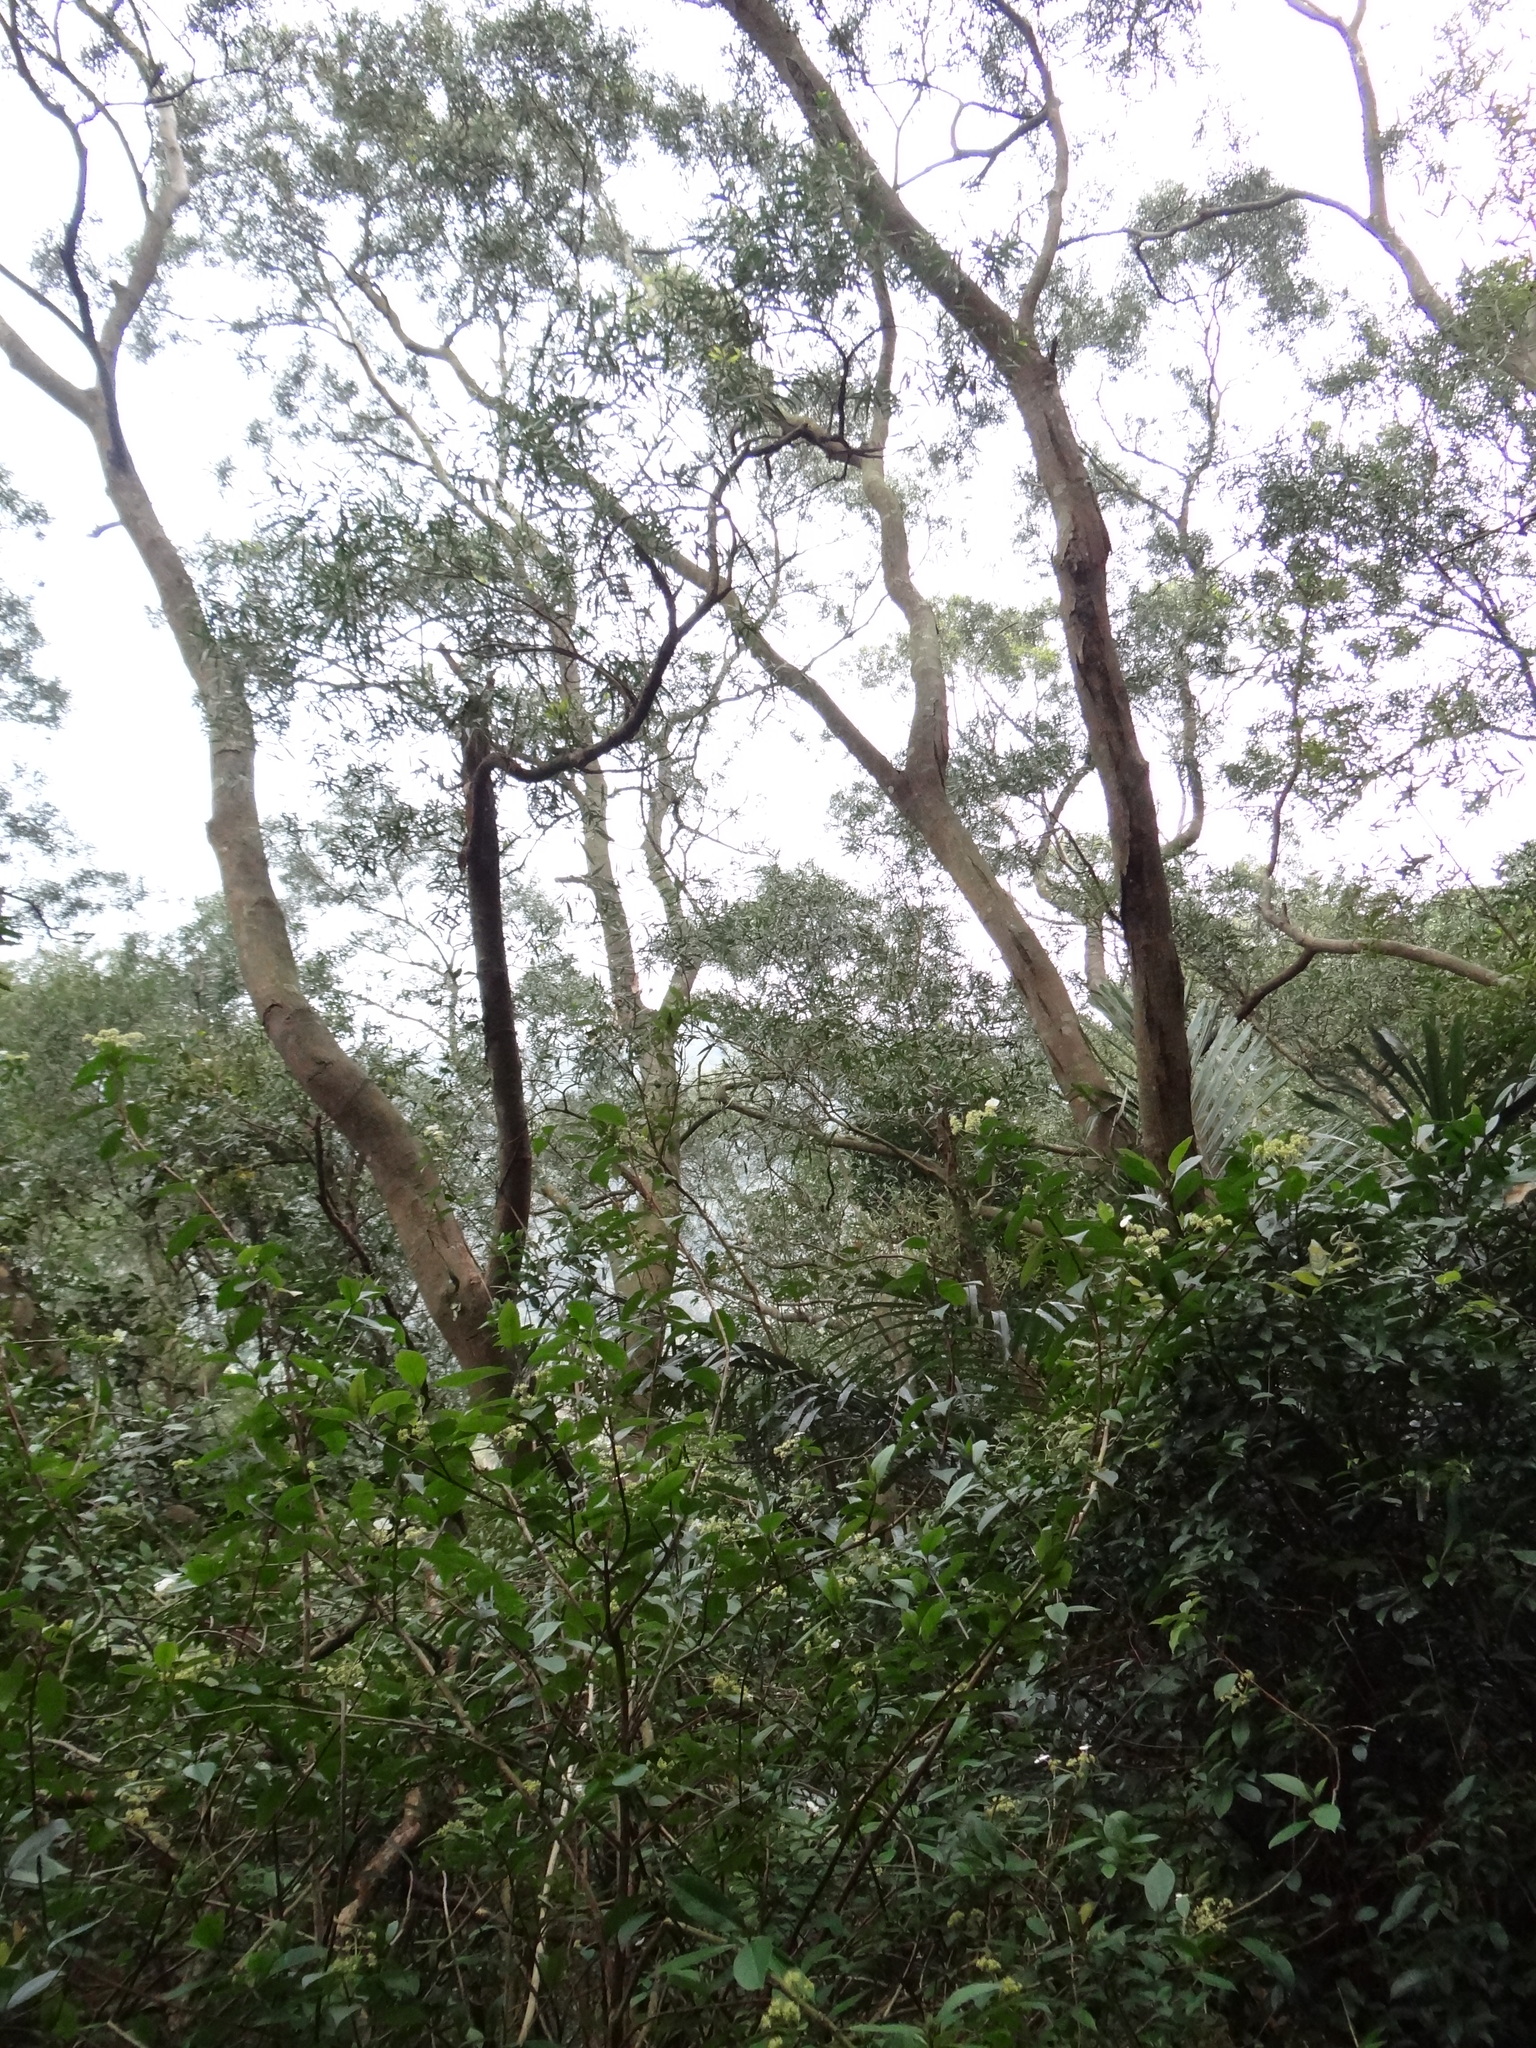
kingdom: Plantae
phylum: Tracheophyta
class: Magnoliopsida
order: Fabales
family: Fabaceae
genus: Acacia
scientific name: Acacia confusa
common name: Formosan koa
